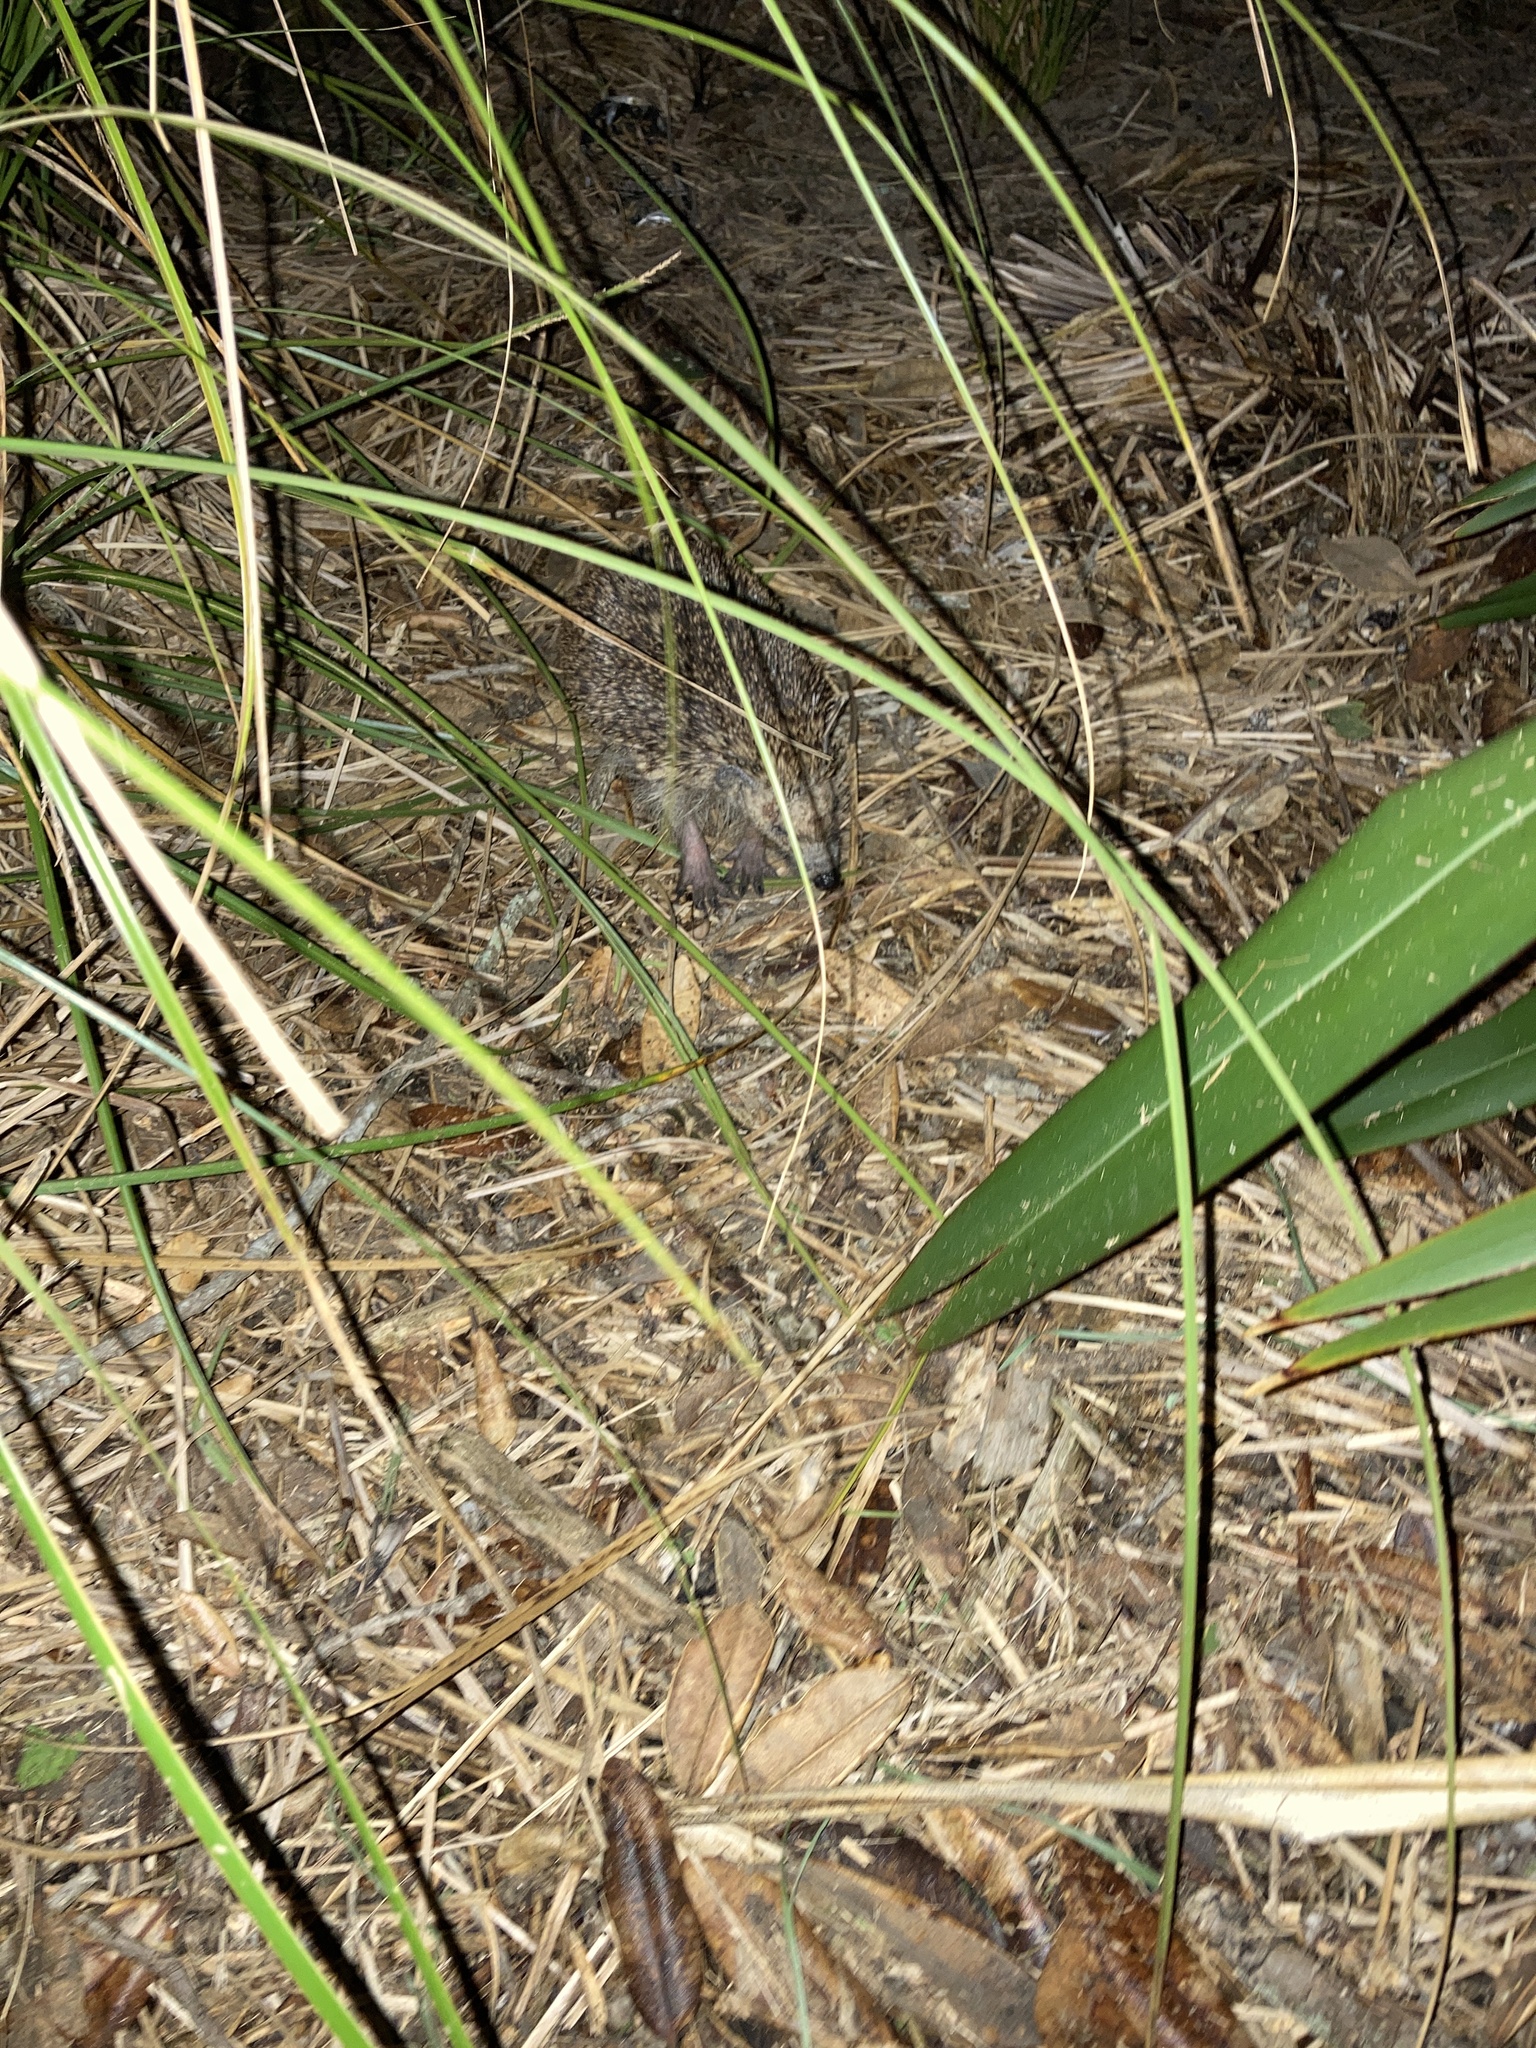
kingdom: Animalia
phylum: Chordata
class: Mammalia
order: Erinaceomorpha
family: Erinaceidae
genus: Erinaceus
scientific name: Erinaceus europaeus
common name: West european hedgehog
